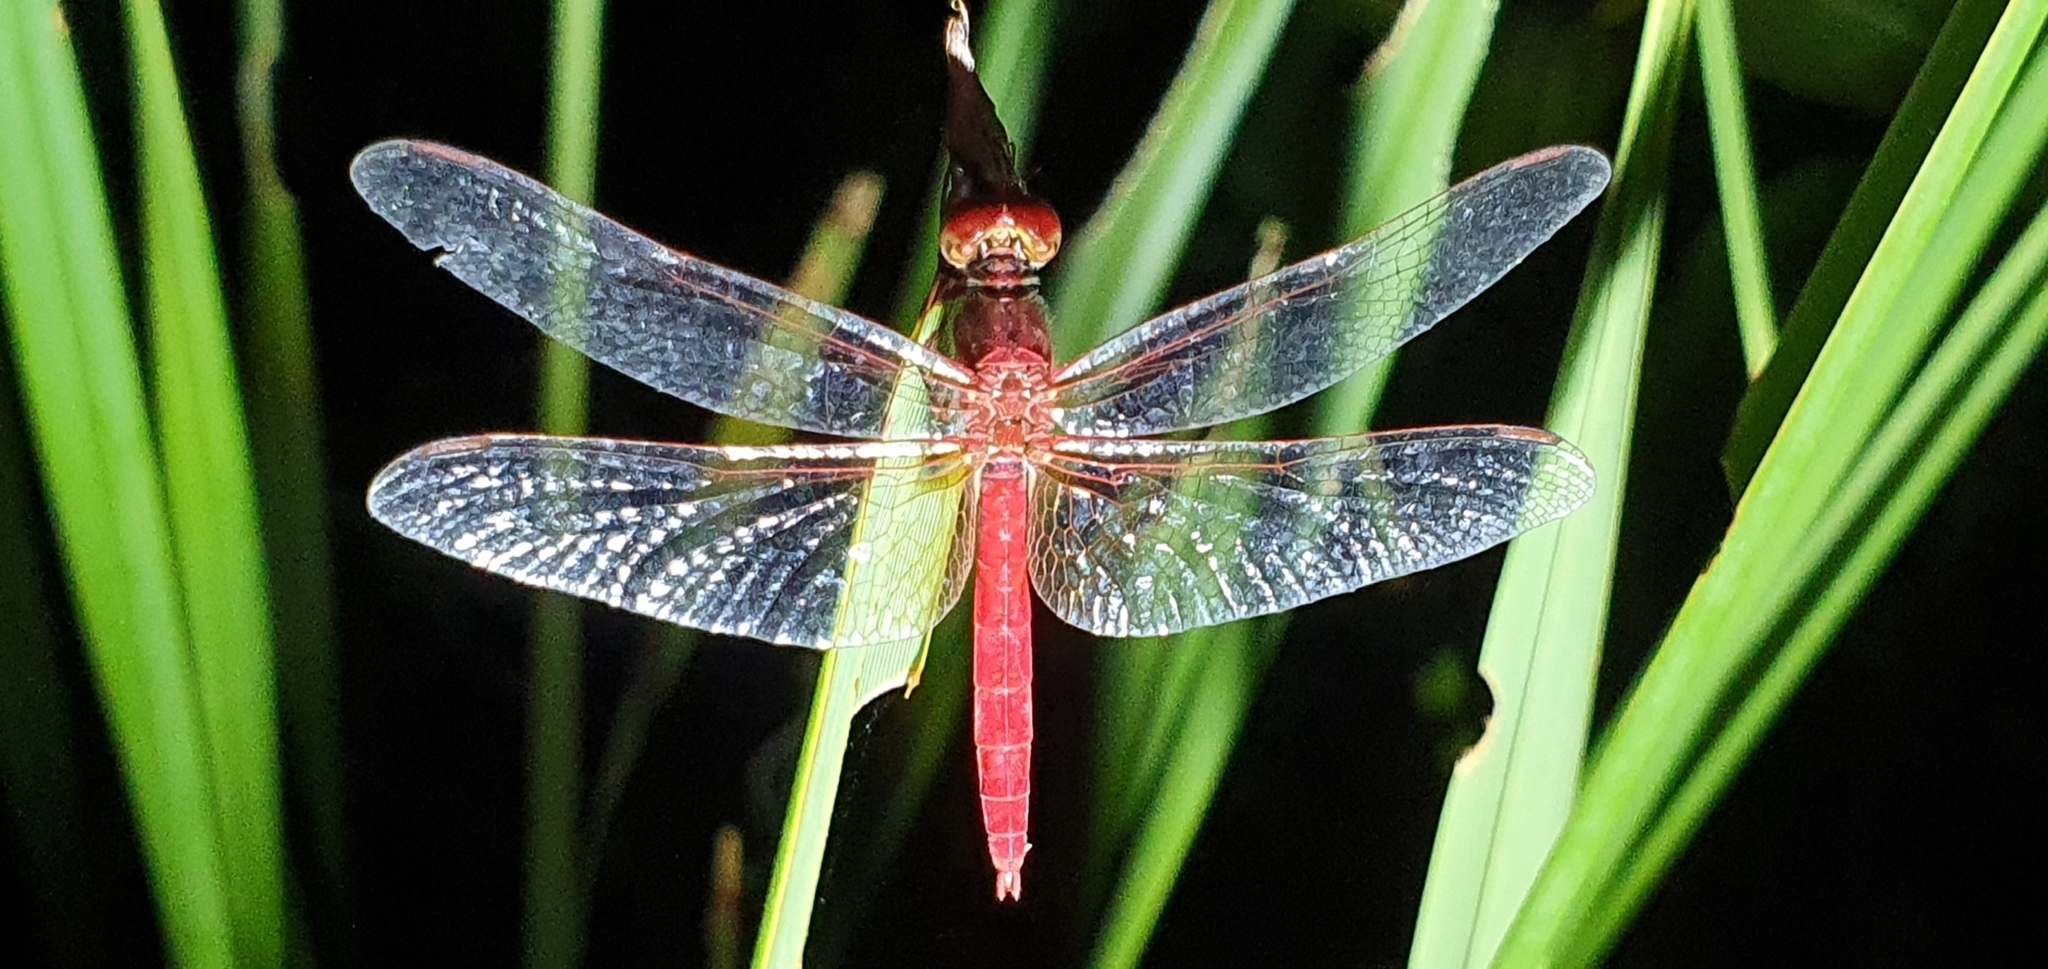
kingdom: Animalia
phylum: Arthropoda
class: Insecta
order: Odonata
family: Libellulidae
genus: Diplacodes
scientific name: Diplacodes haematodes
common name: Scarlet percher
